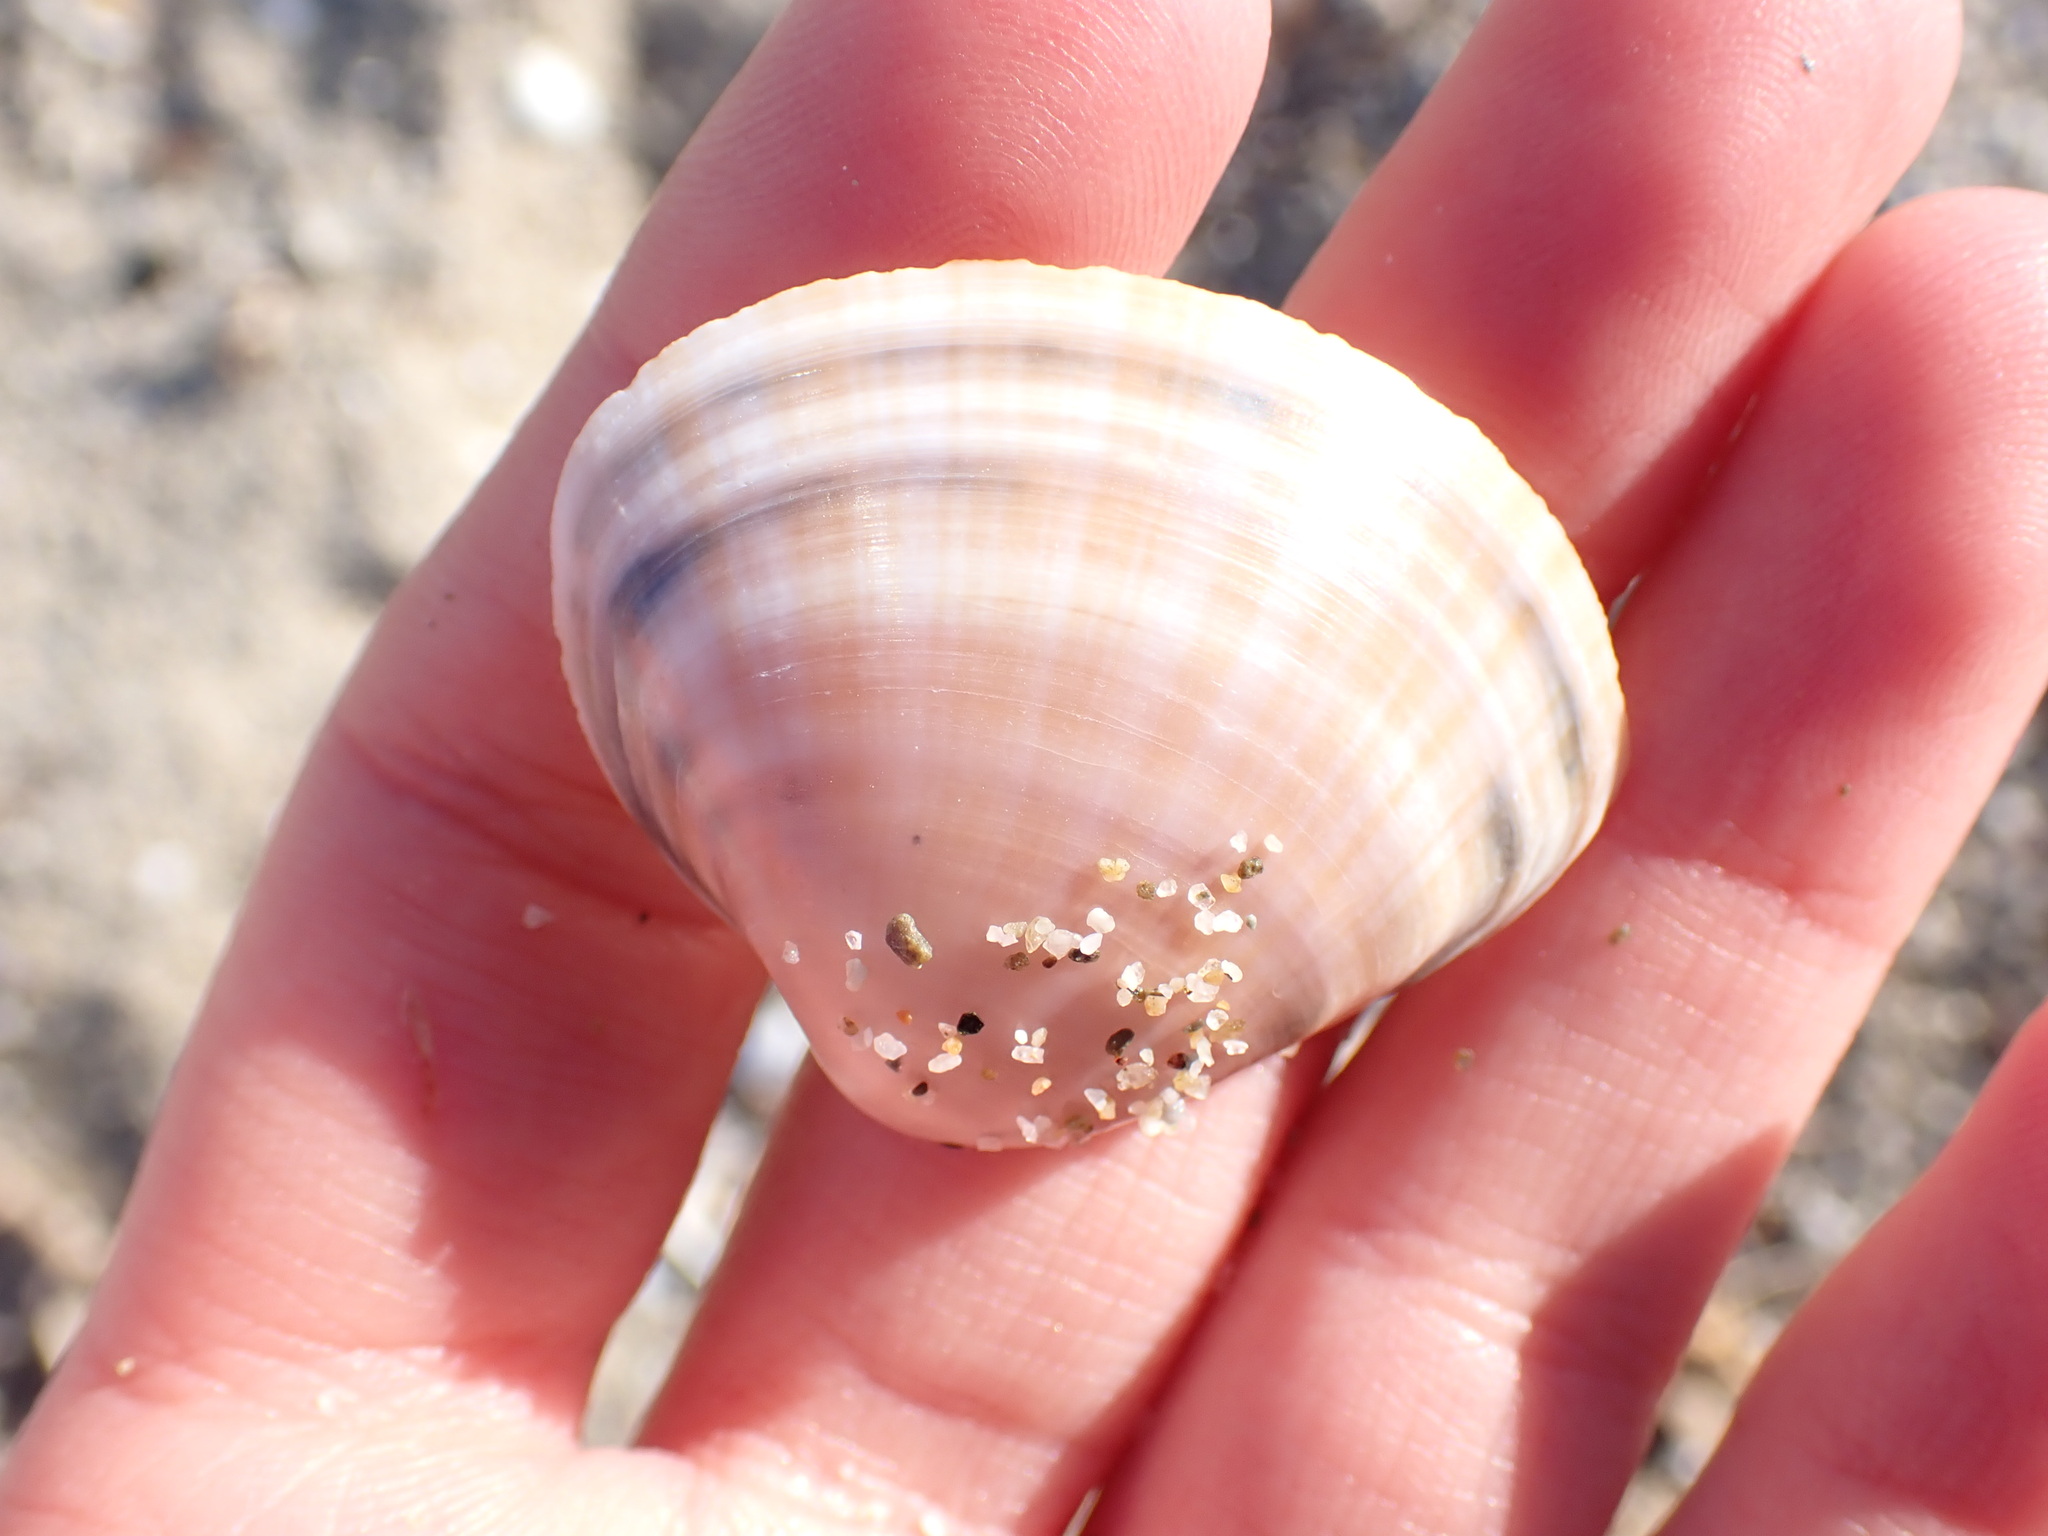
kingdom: Animalia
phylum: Mollusca
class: Bivalvia
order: Venerida
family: Mactridae
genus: Mactra
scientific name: Mactra stultorum
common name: Rayed trough shell
